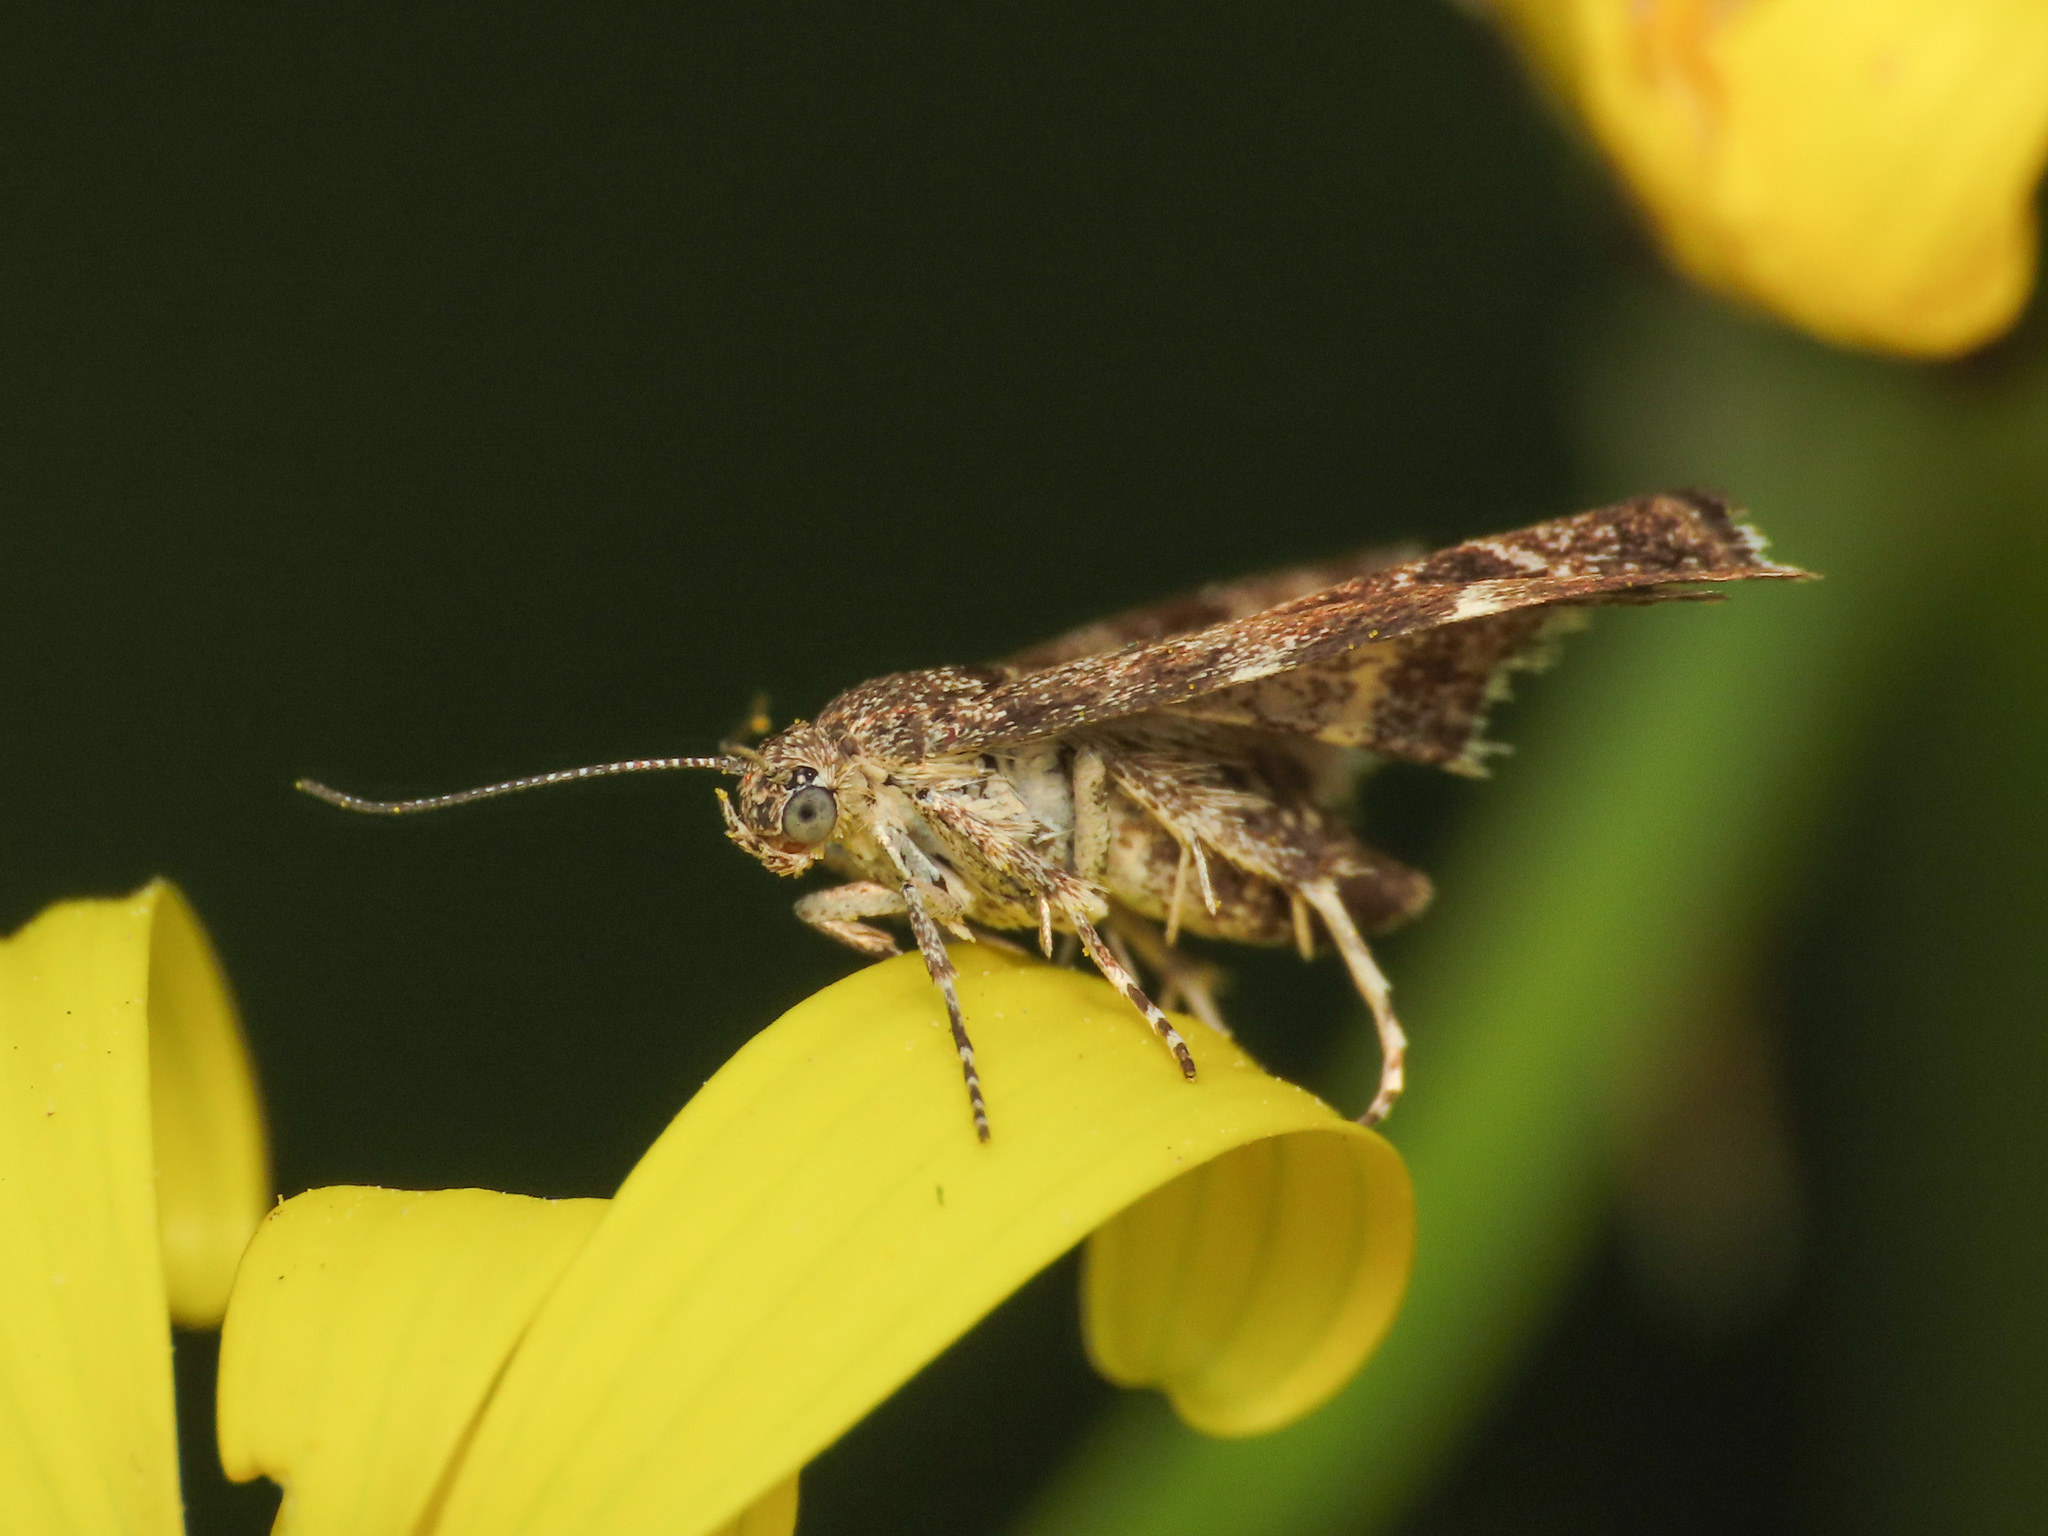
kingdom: Animalia
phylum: Arthropoda
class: Insecta
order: Lepidoptera
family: Choreutidae
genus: Anthophila
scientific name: Anthophila fabriciana
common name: Nettle-tap
